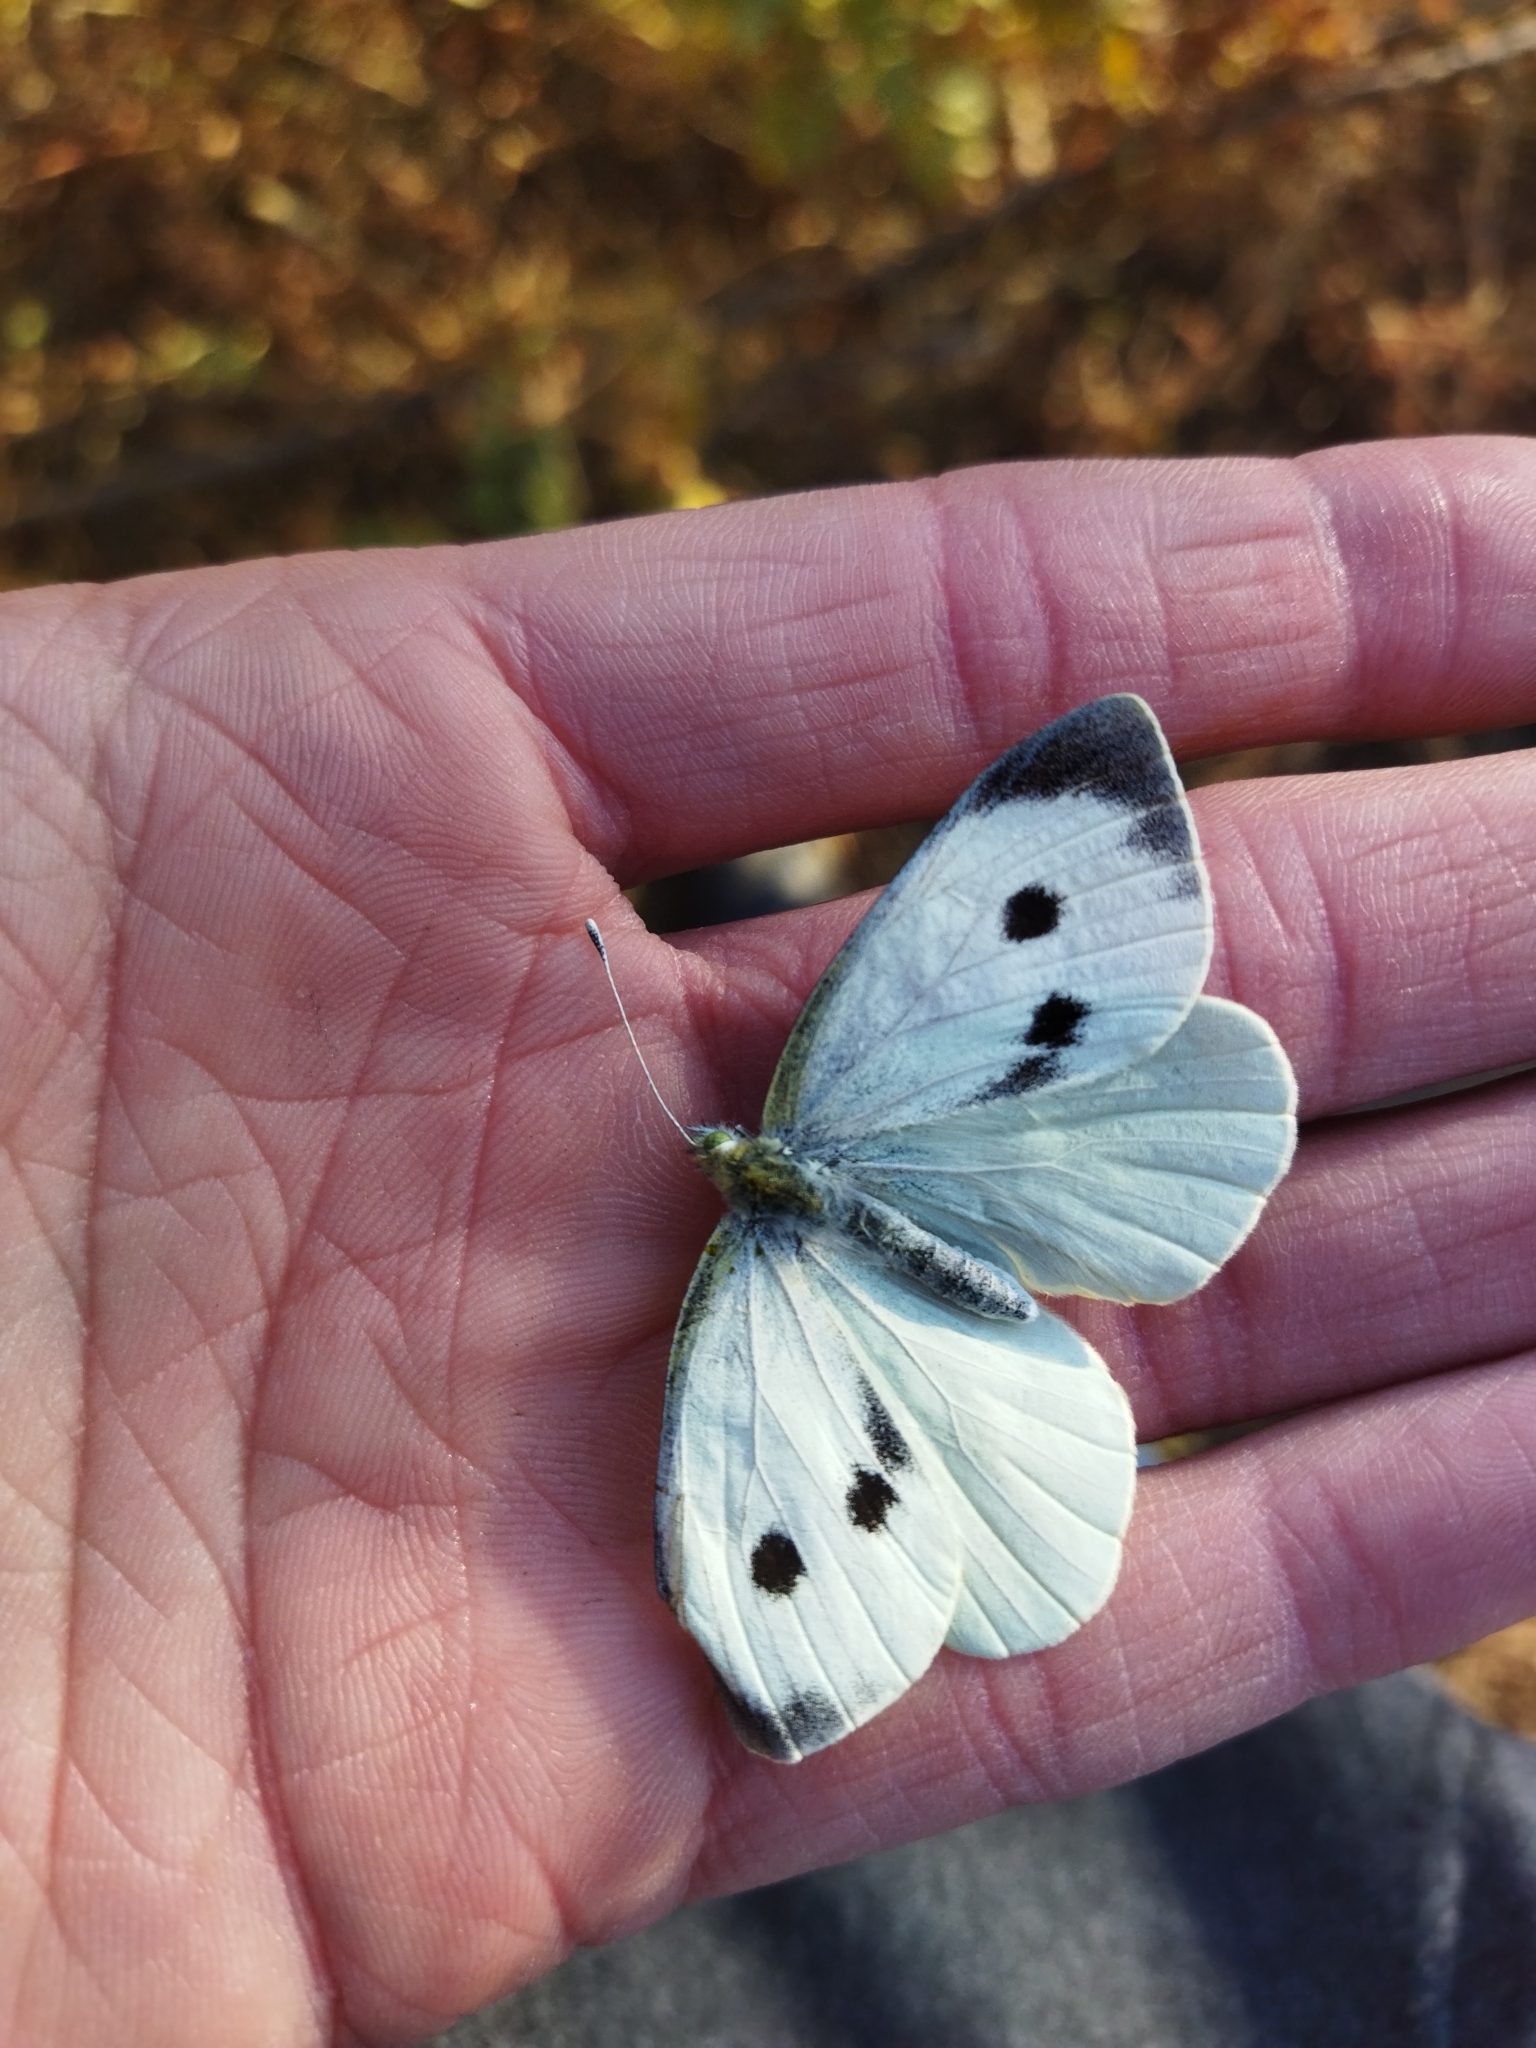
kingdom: Animalia
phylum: Arthropoda
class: Insecta
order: Lepidoptera
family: Pieridae
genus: Pieris
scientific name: Pieris brassicae
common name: Large white
